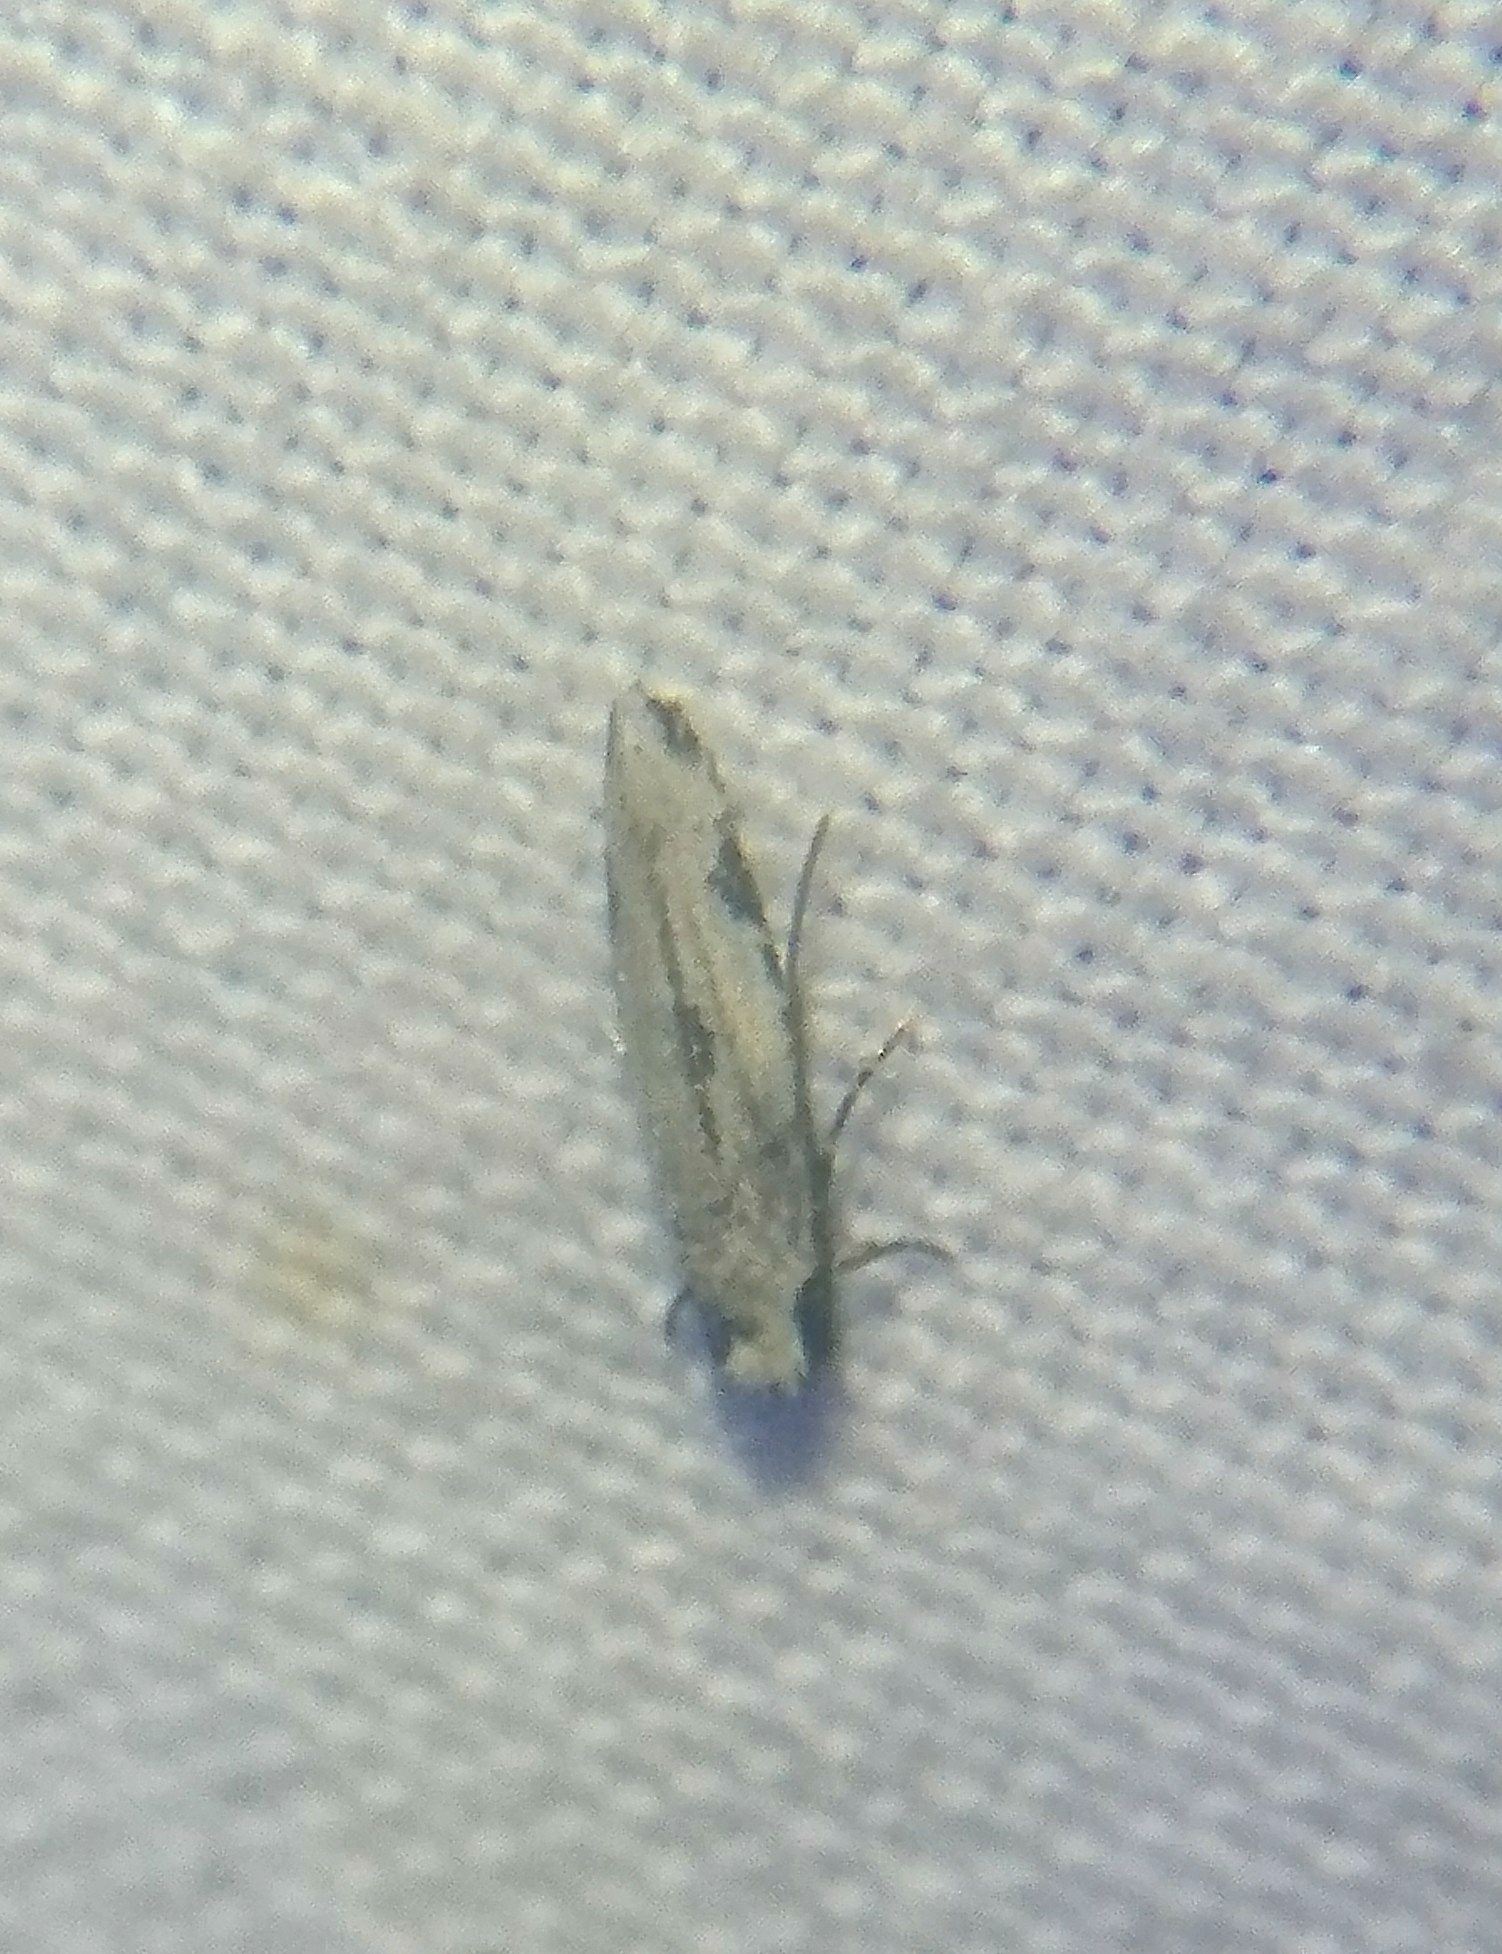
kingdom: Animalia
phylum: Arthropoda
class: Insecta
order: Lepidoptera
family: Meessiidae
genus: Mea
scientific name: Mea bipunctella
